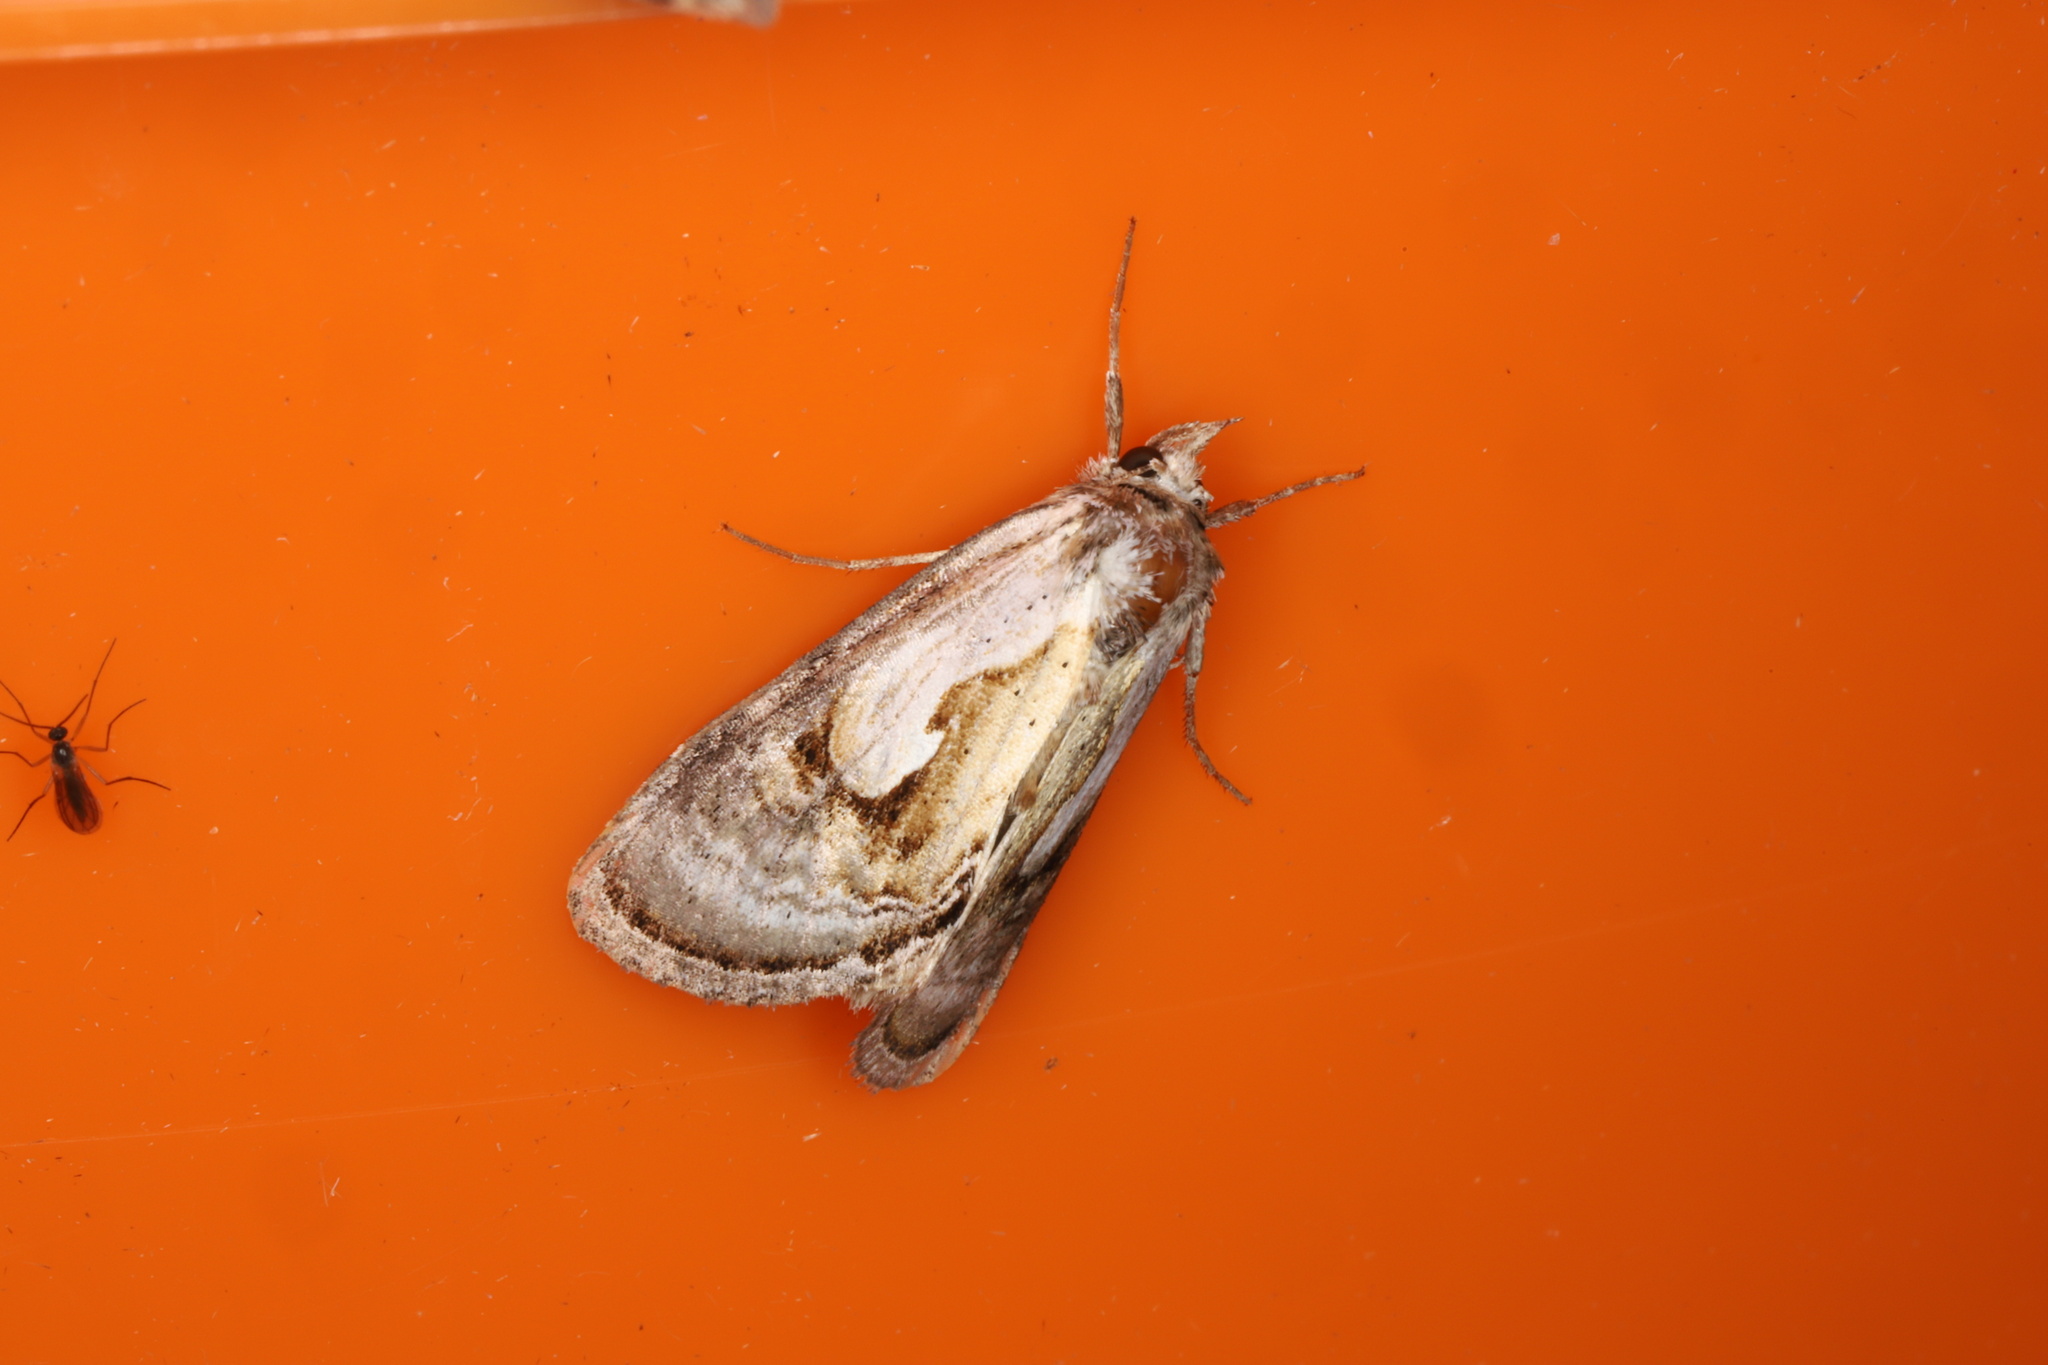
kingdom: Animalia
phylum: Arthropoda
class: Insecta
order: Lepidoptera
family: Noctuidae
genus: Chrysanympha
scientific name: Chrysanympha formosa
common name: Formosa looper moth
